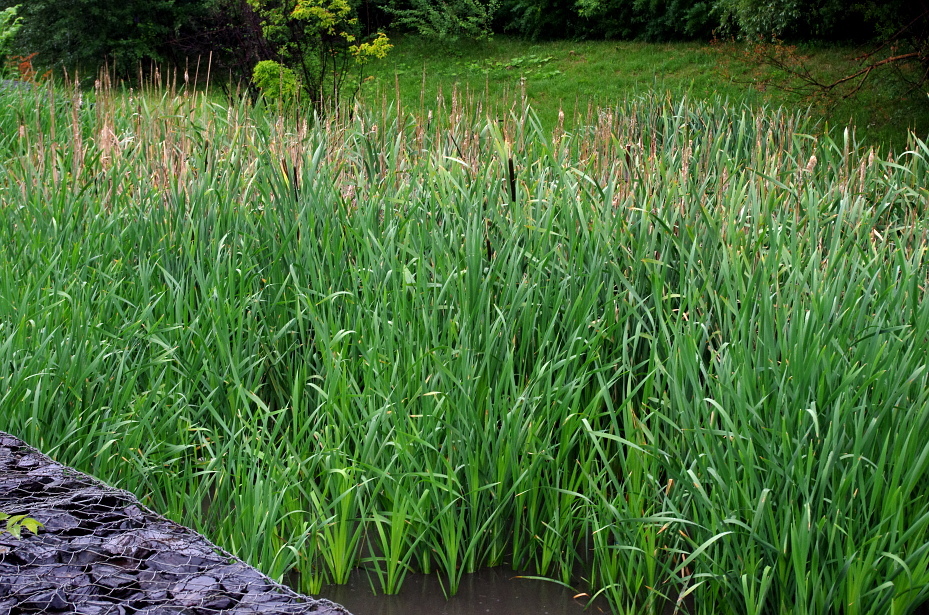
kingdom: Plantae
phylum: Tracheophyta
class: Liliopsida
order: Poales
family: Typhaceae
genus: Typha
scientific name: Typha latifolia
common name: Broadleaf cattail
